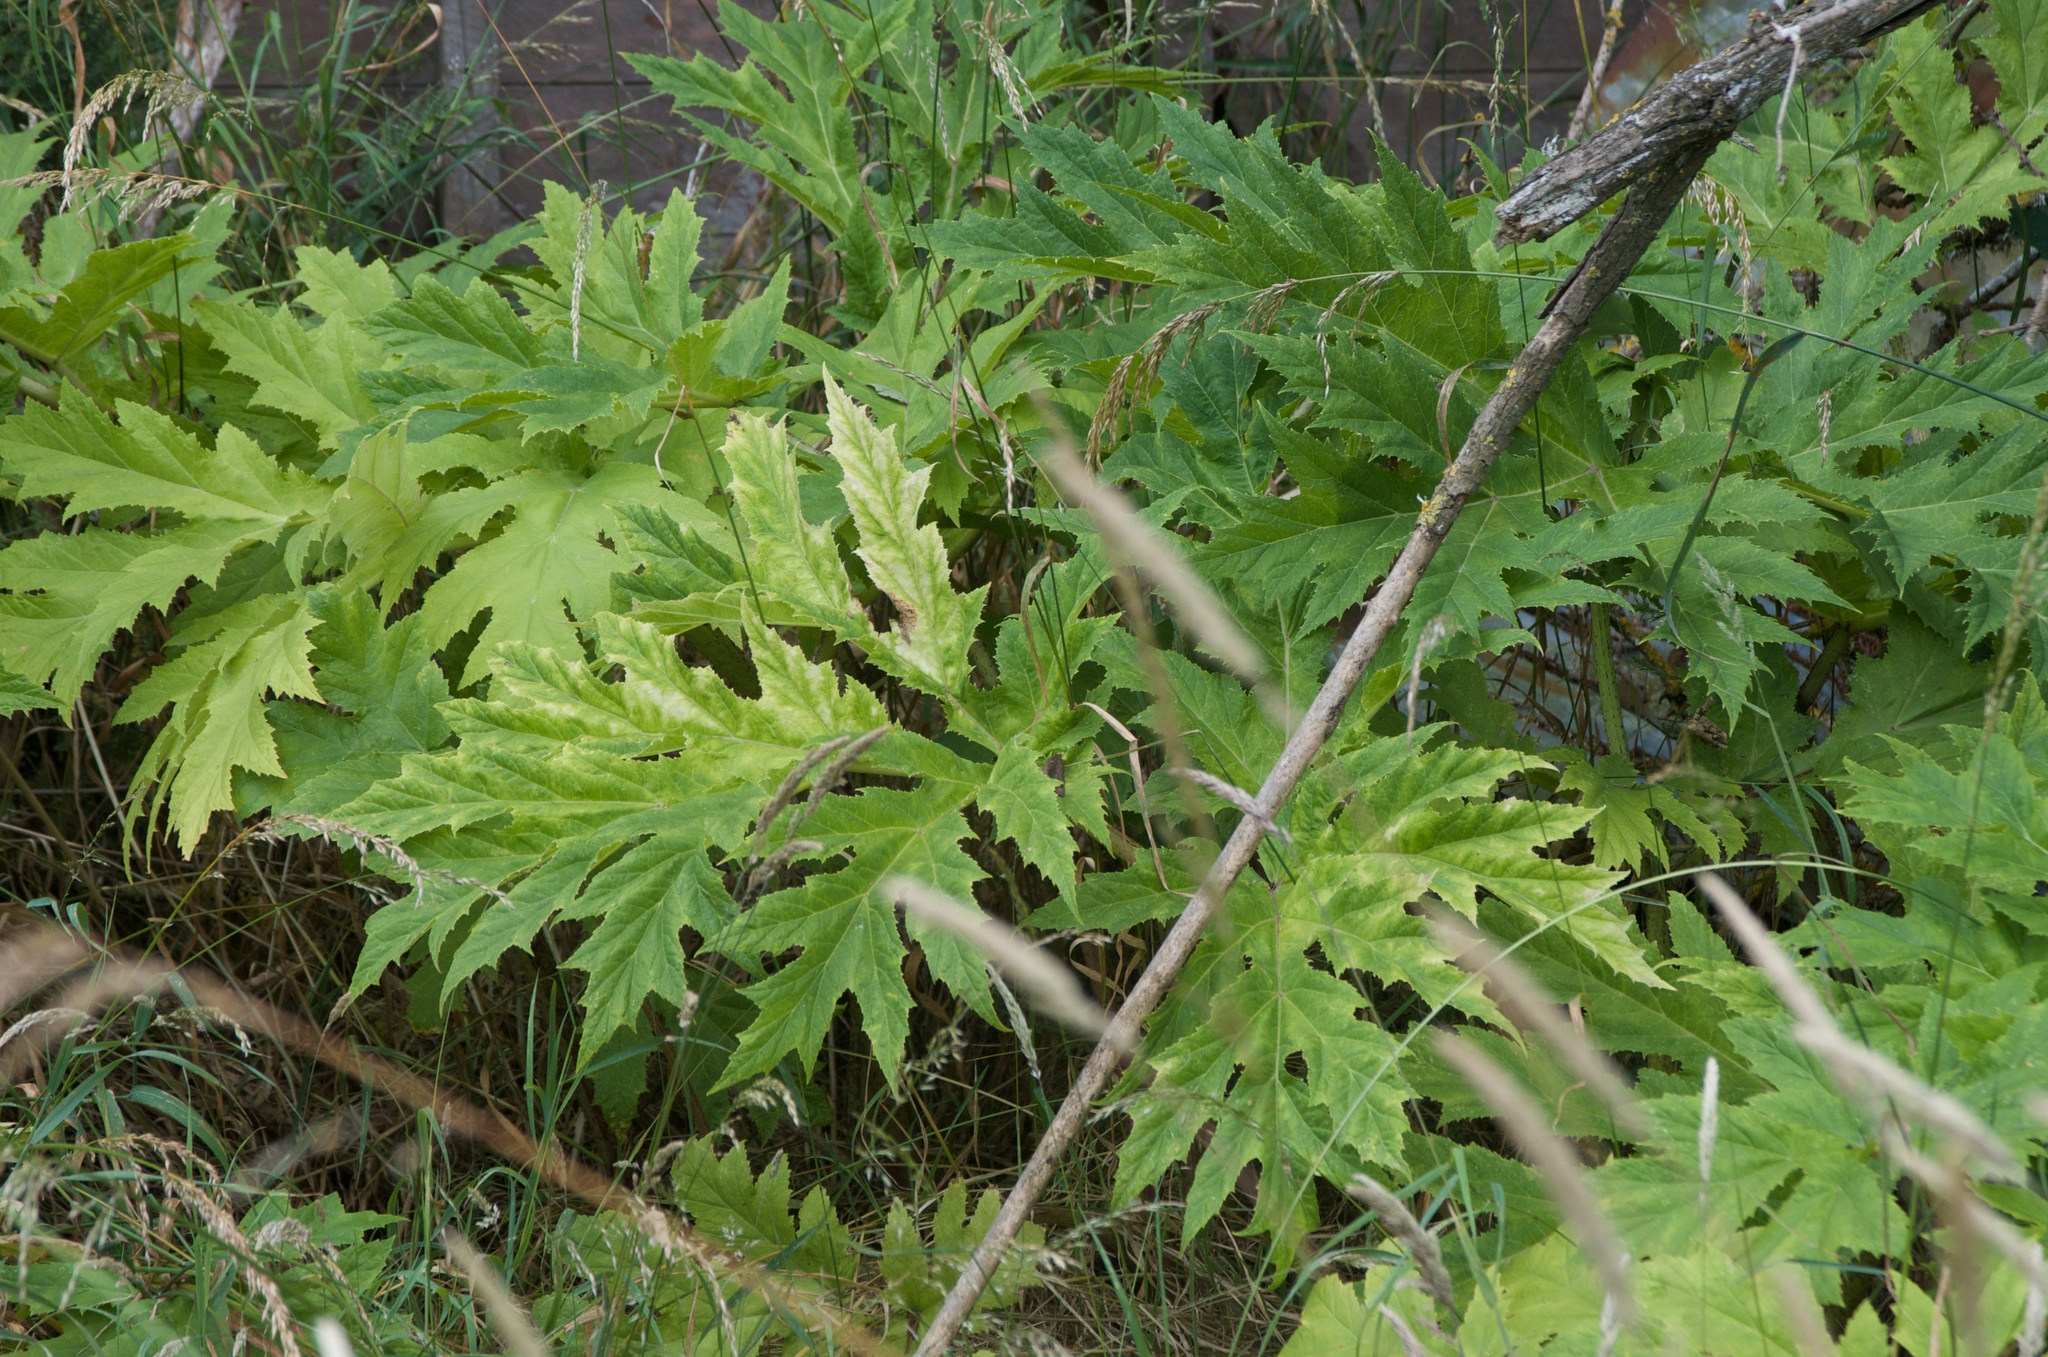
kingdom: Plantae
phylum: Tracheophyta
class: Magnoliopsida
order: Apiales
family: Apiaceae
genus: Heracleum
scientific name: Heracleum mantegazzianum
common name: Giant hogweed
